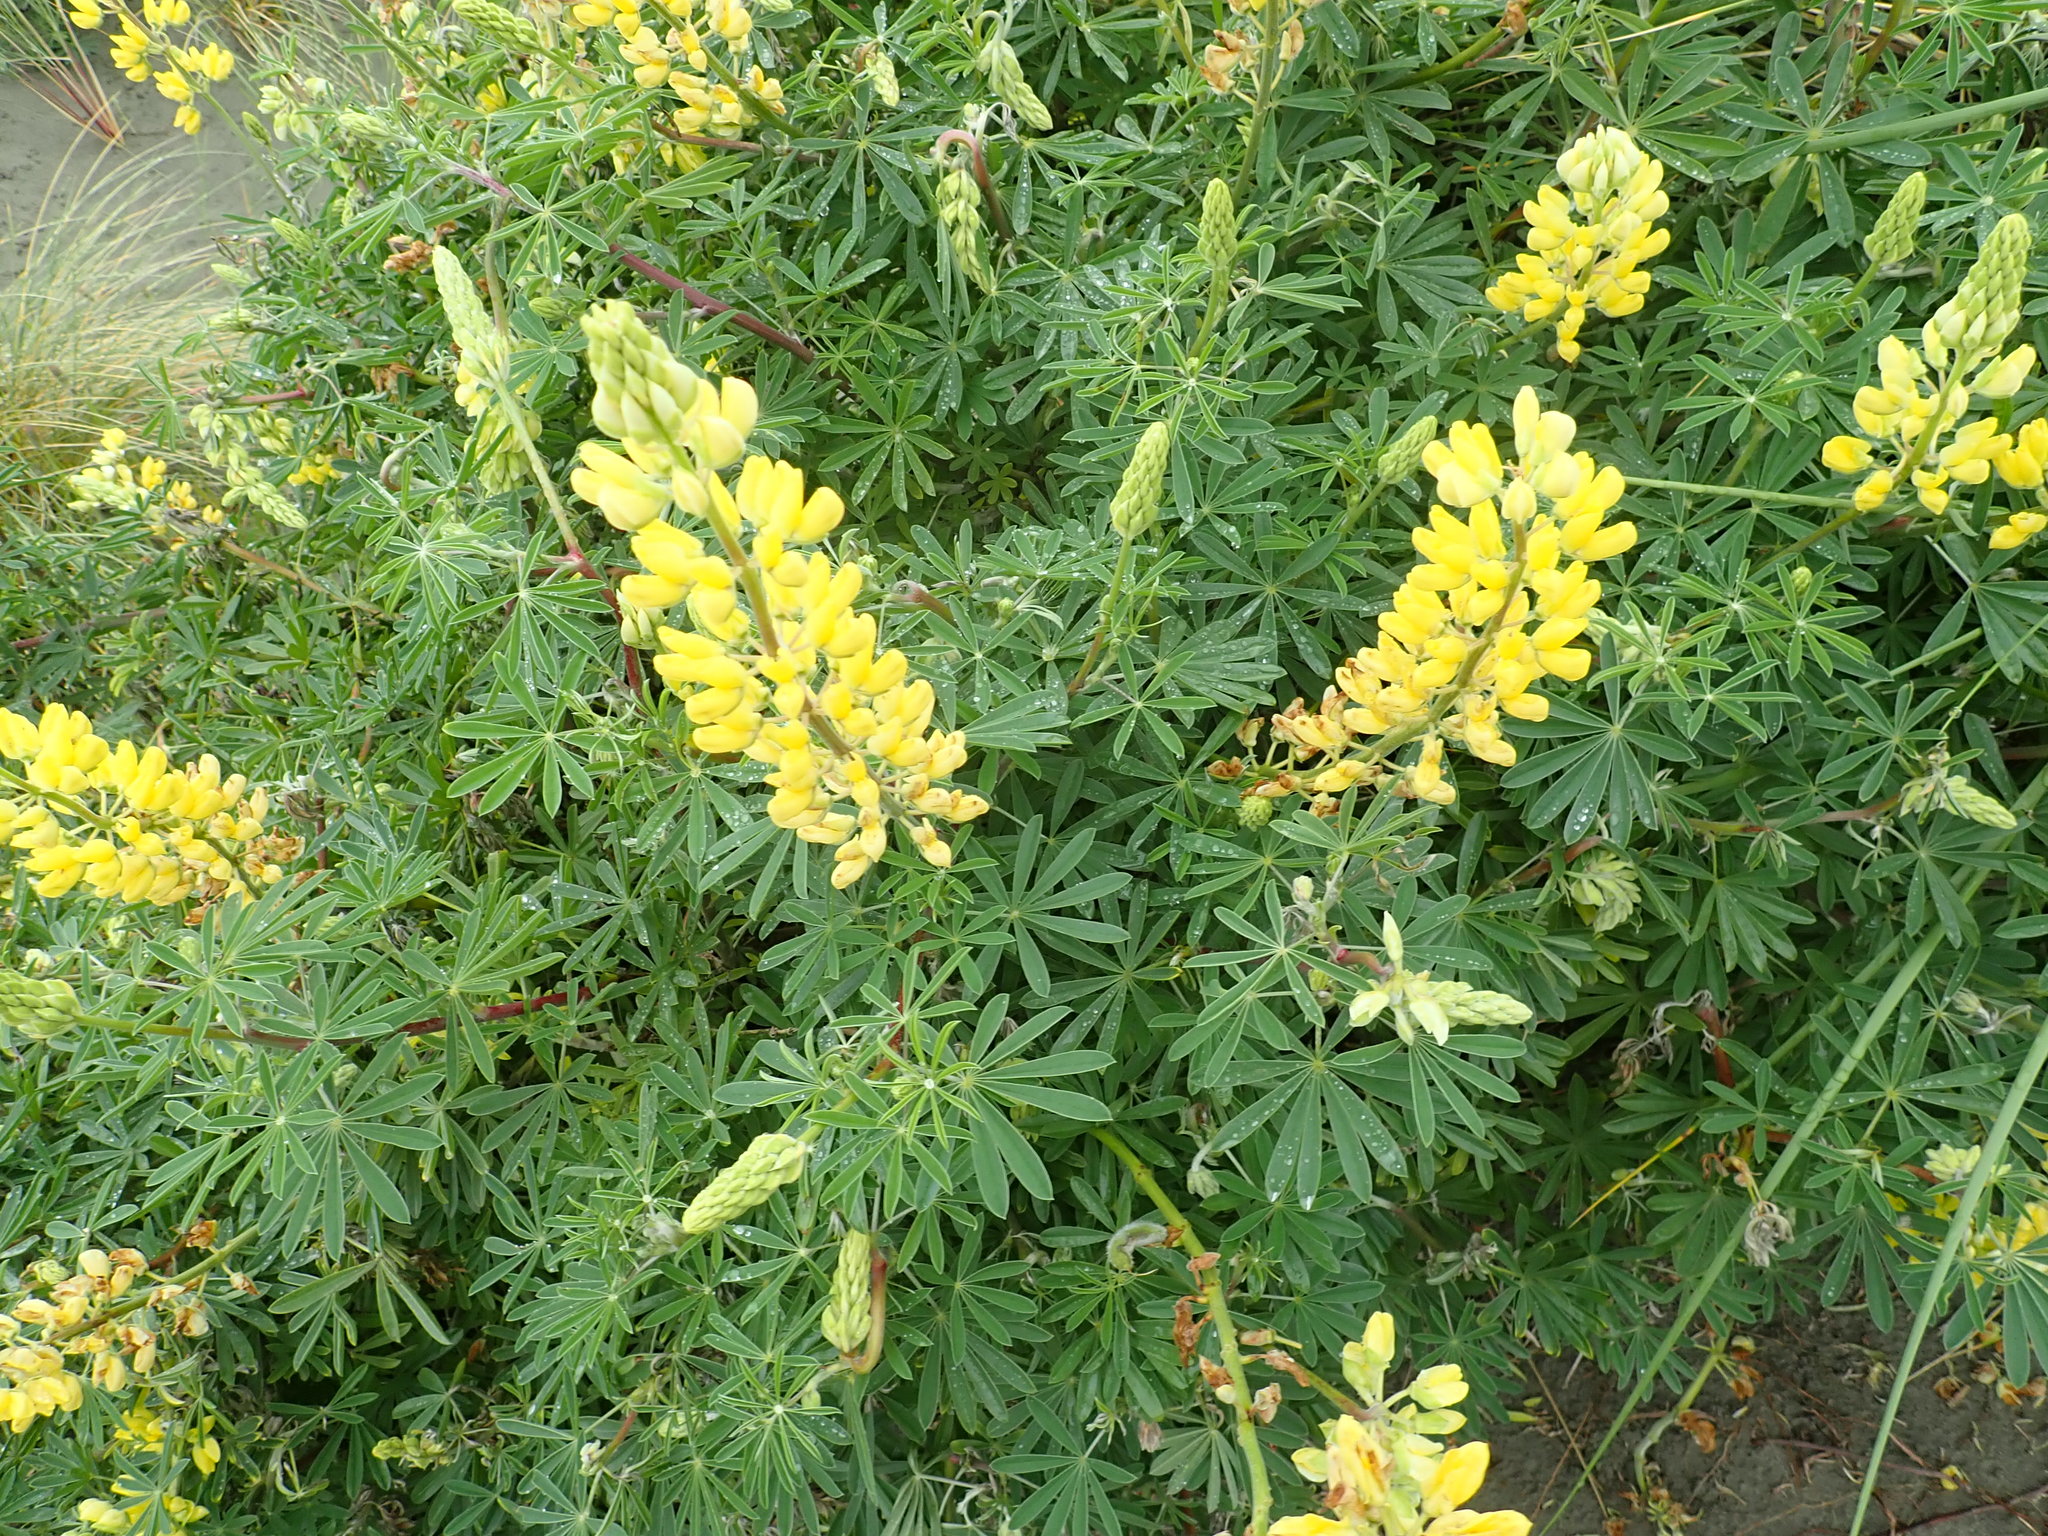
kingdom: Plantae
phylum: Tracheophyta
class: Magnoliopsida
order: Fabales
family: Fabaceae
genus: Lupinus
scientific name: Lupinus arboreus
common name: Yellow bush lupine
